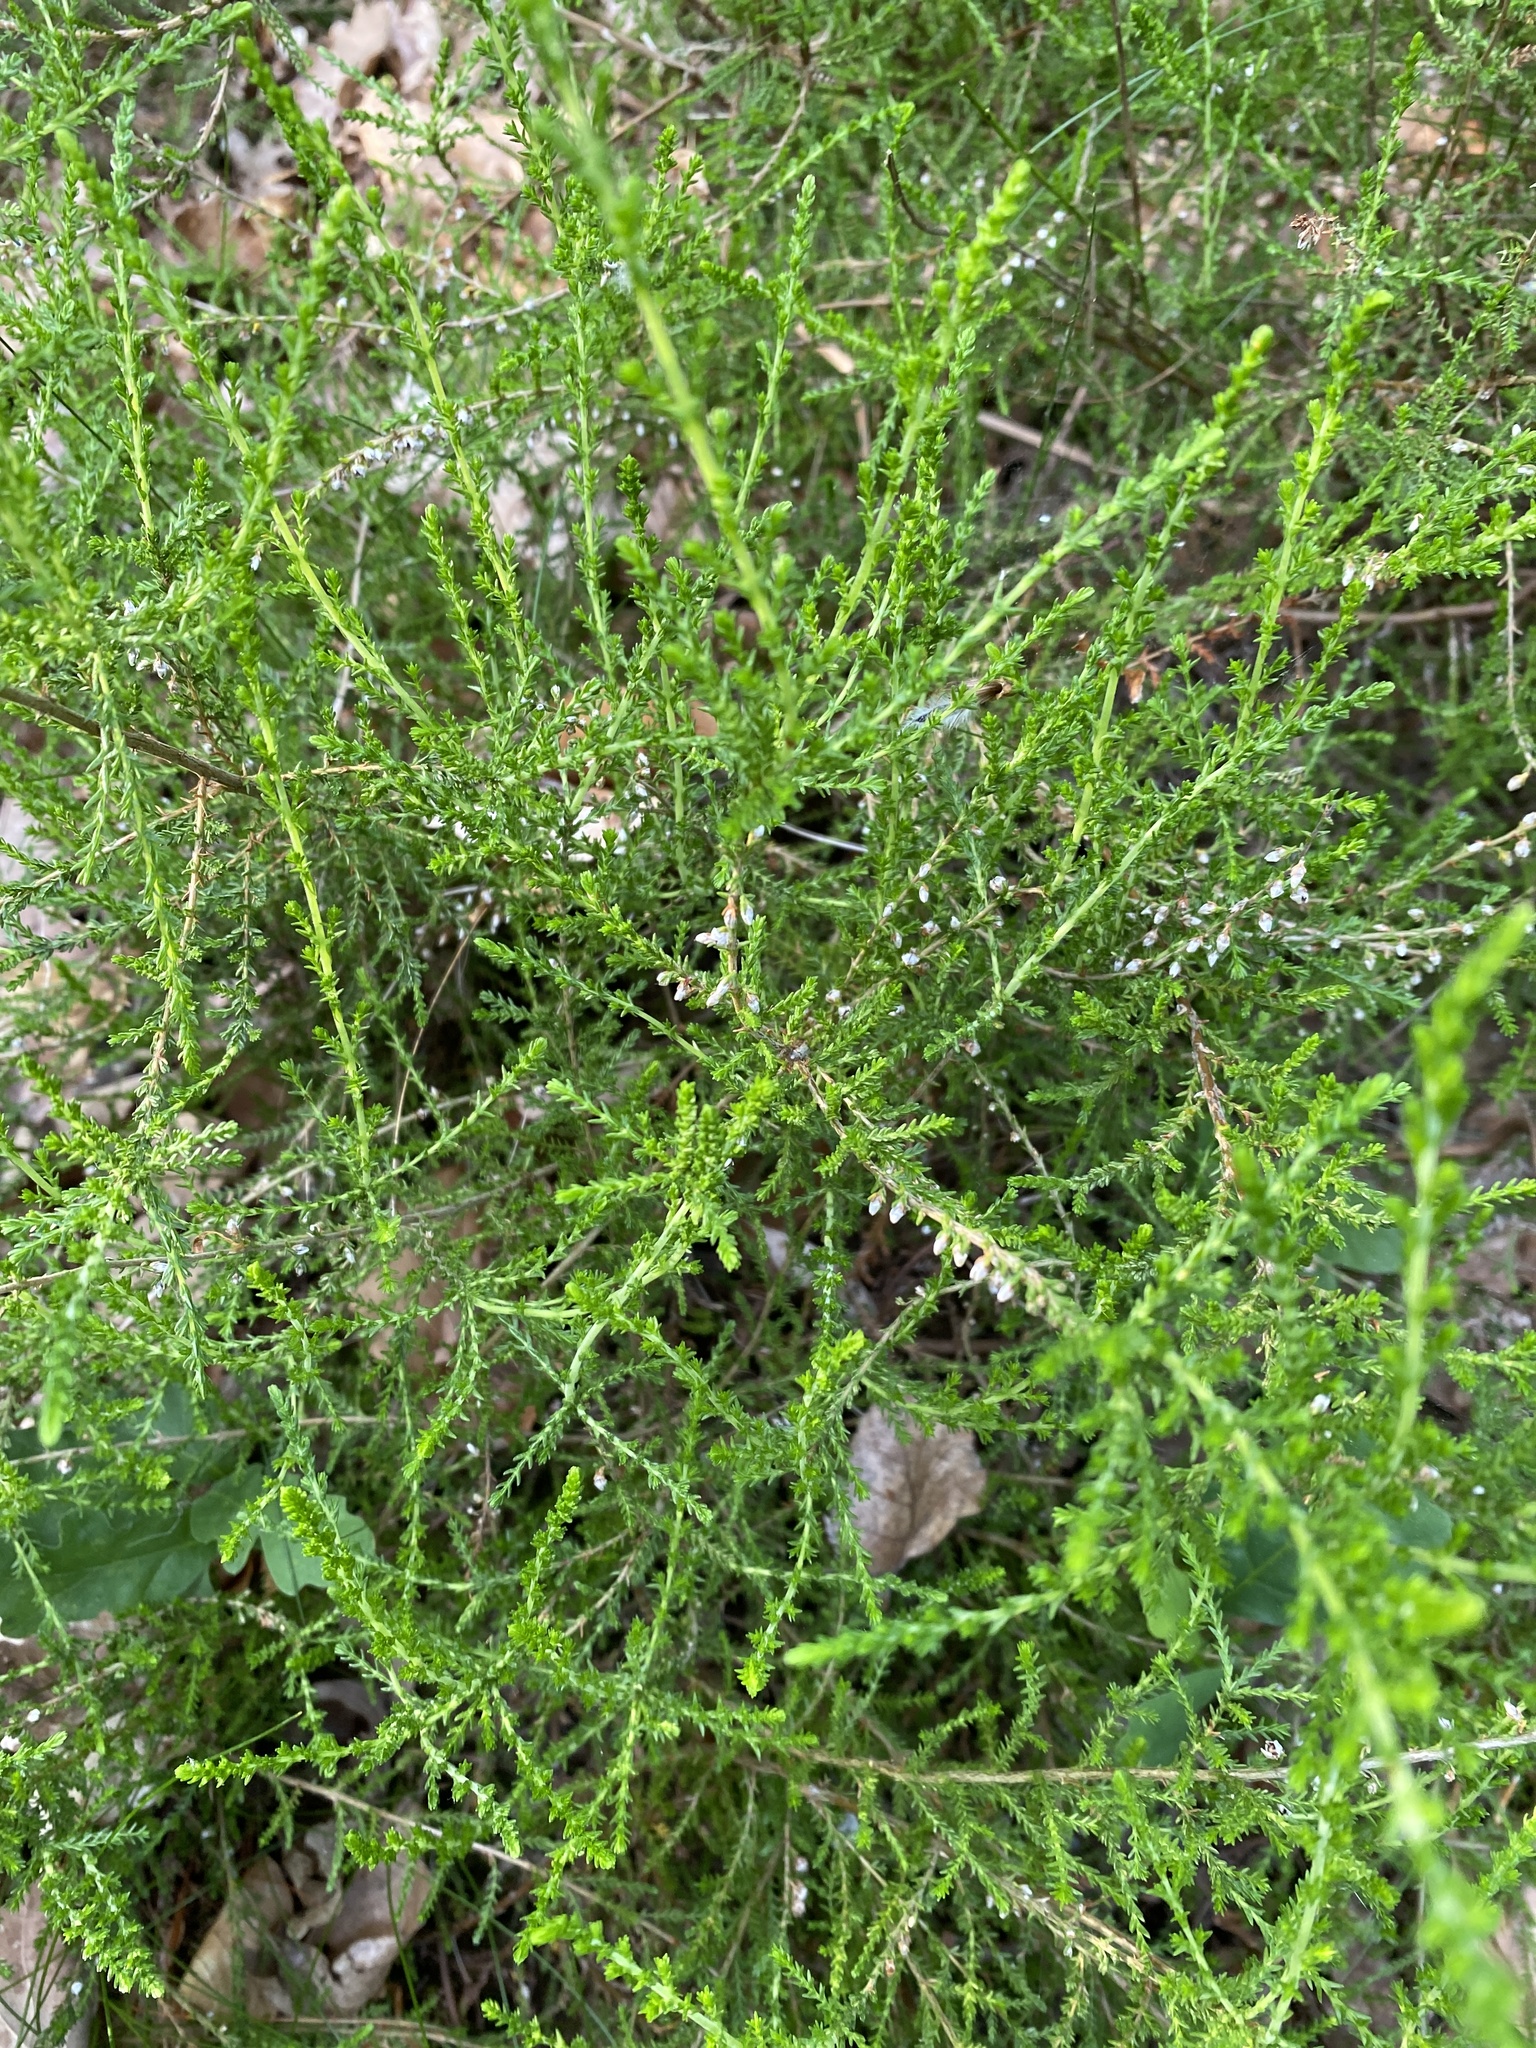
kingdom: Plantae
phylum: Tracheophyta
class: Magnoliopsida
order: Ericales
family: Ericaceae
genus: Calluna
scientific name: Calluna vulgaris
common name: Heather
